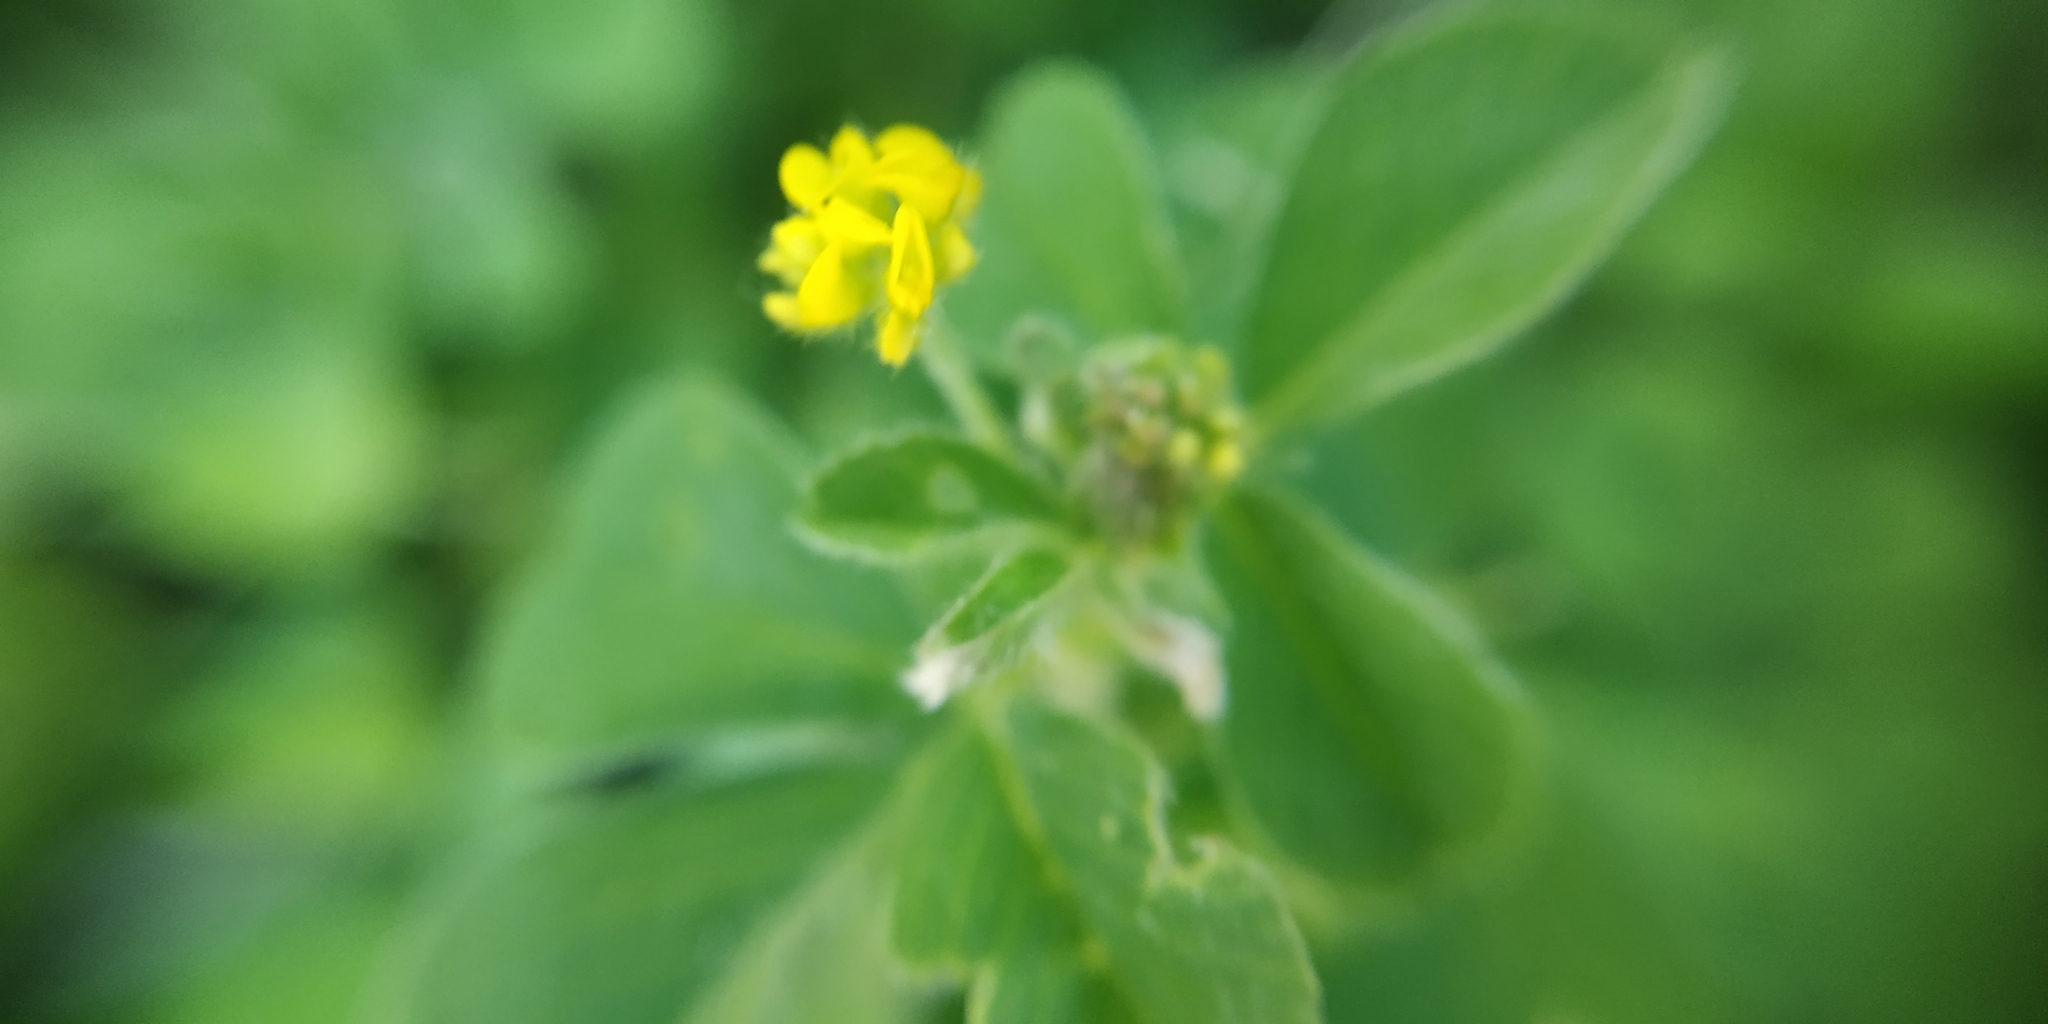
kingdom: Plantae
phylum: Tracheophyta
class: Magnoliopsida
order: Fabales
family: Fabaceae
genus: Medicago
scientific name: Medicago lupulina
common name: Black medick
